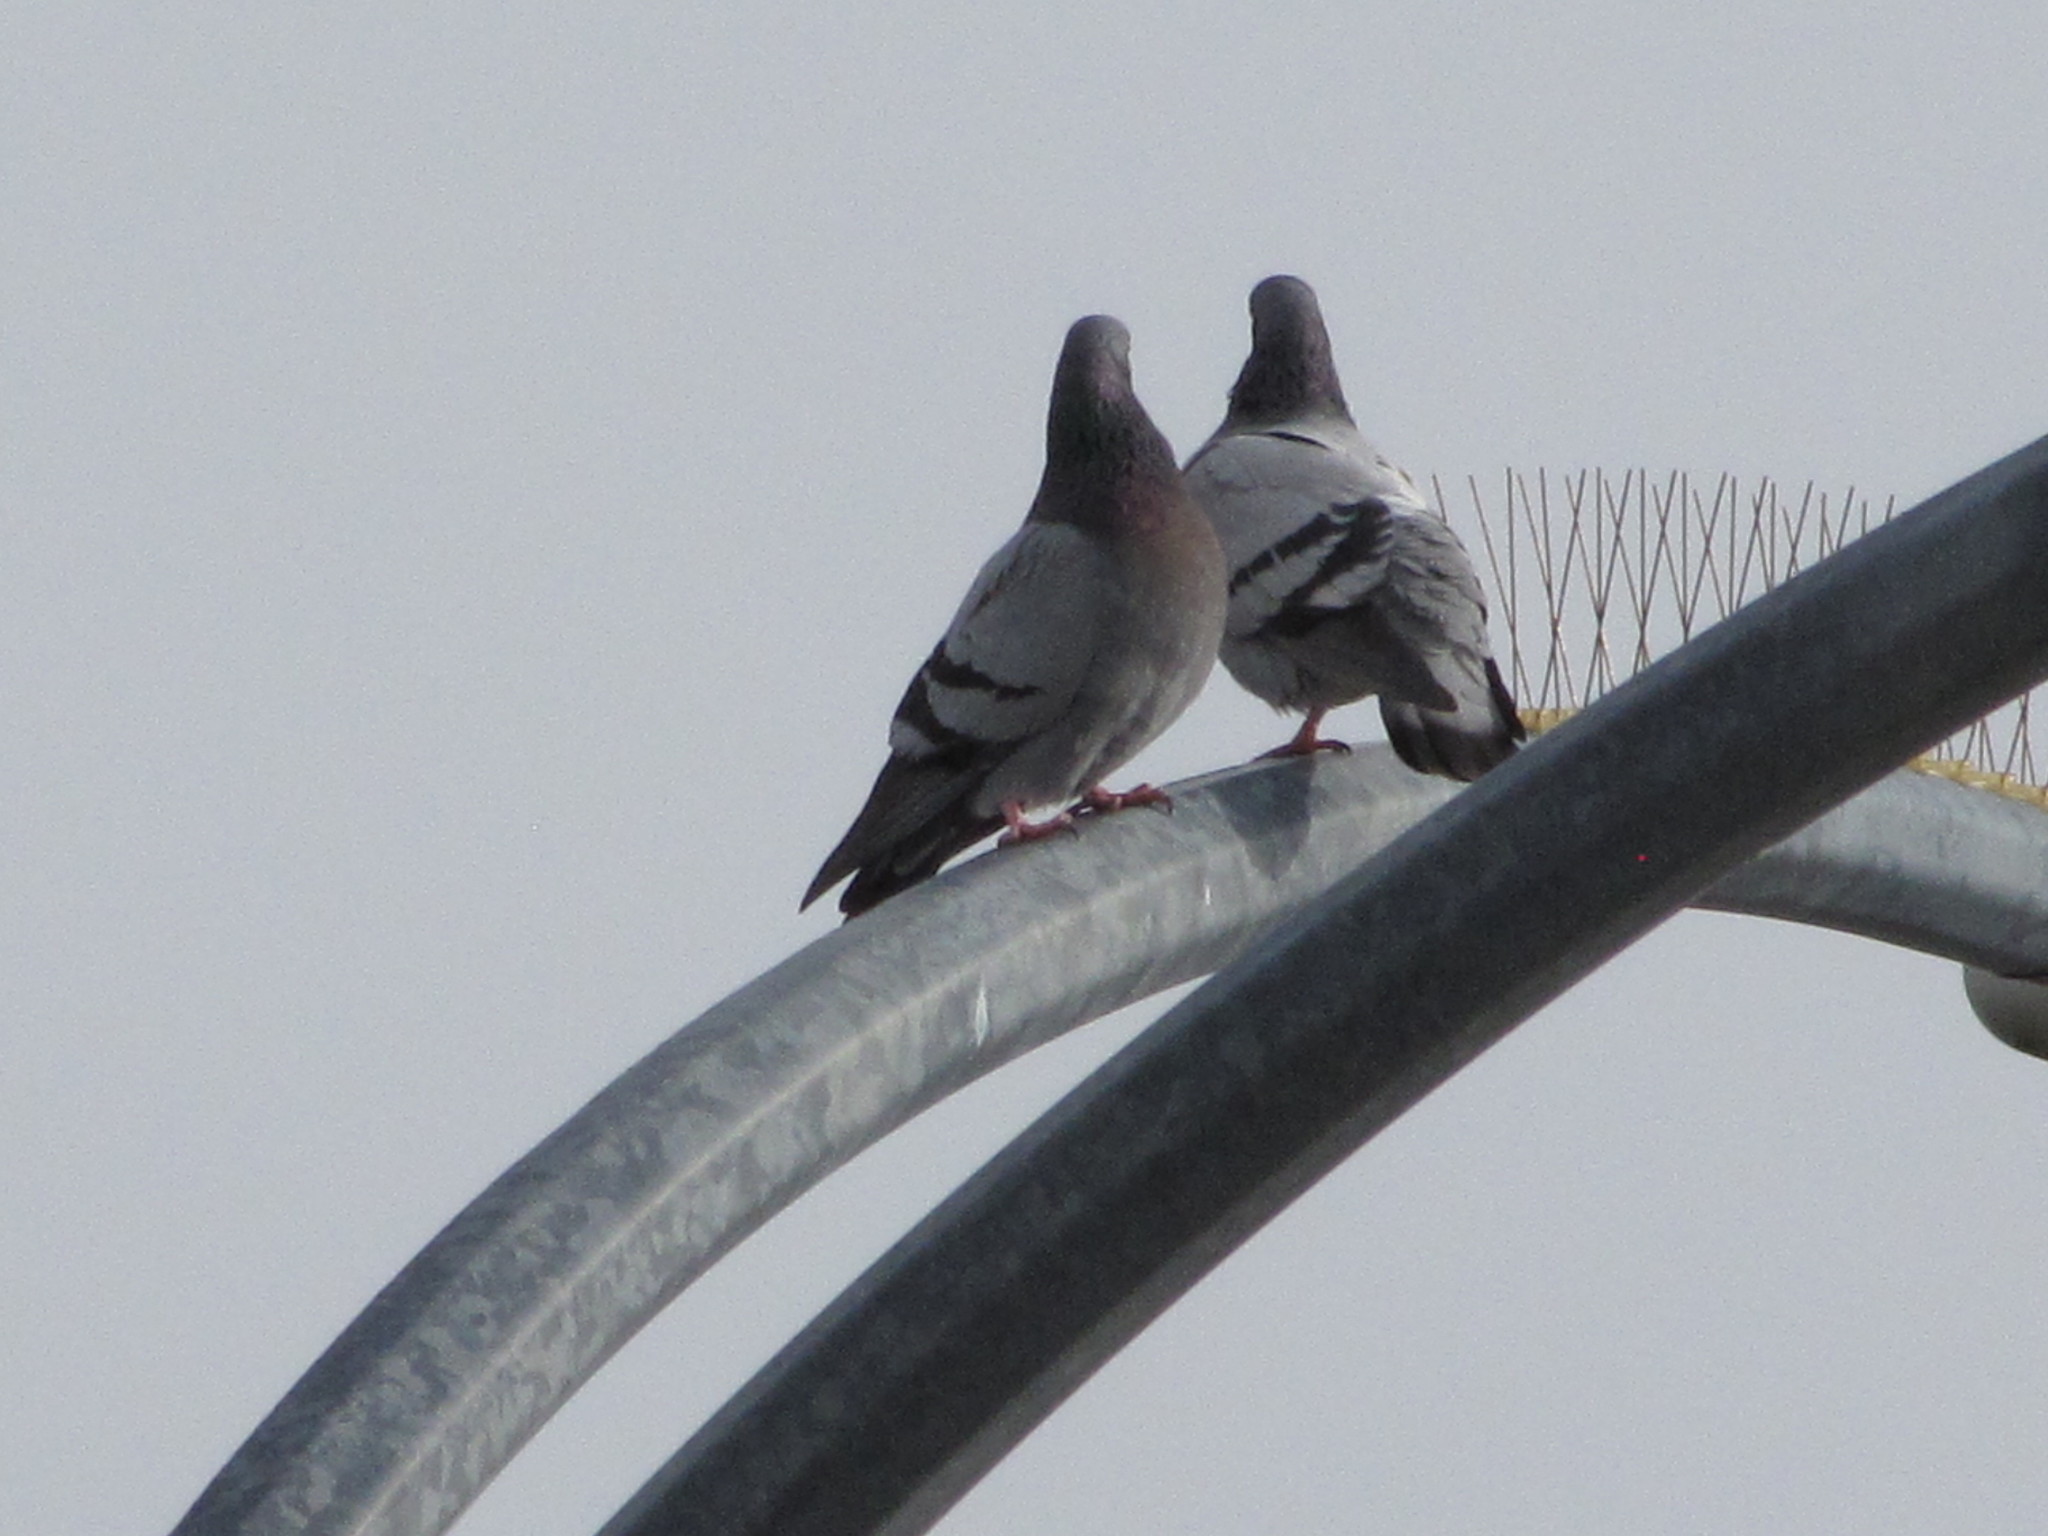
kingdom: Animalia
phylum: Chordata
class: Aves
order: Columbiformes
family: Columbidae
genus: Columba
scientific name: Columba livia
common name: Rock pigeon
